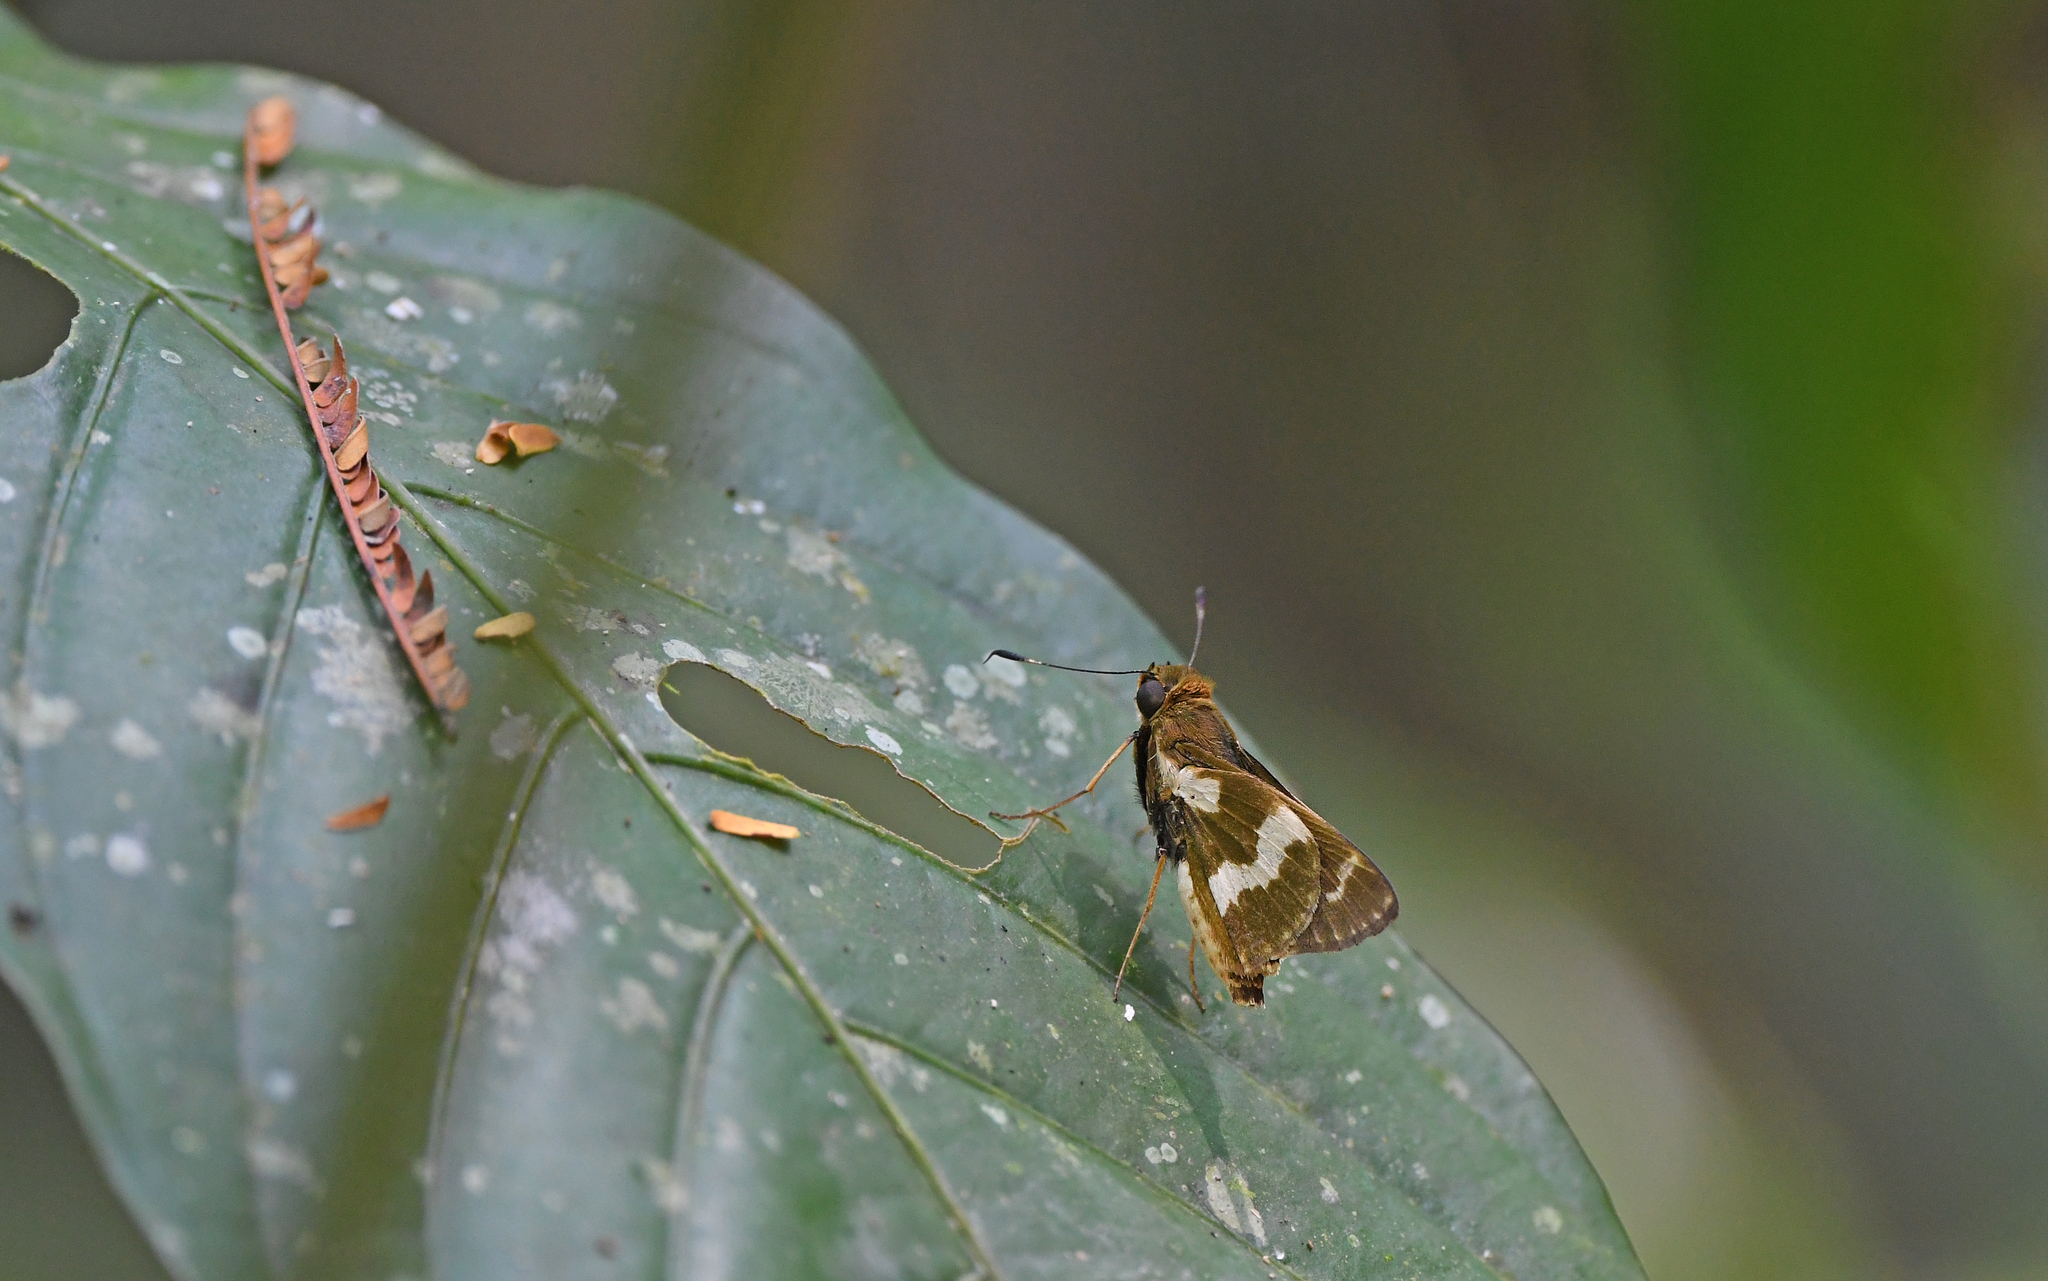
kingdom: Animalia
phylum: Arthropoda
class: Insecta
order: Lepidoptera
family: Hesperiidae
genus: Metron
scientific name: Metron zimra
